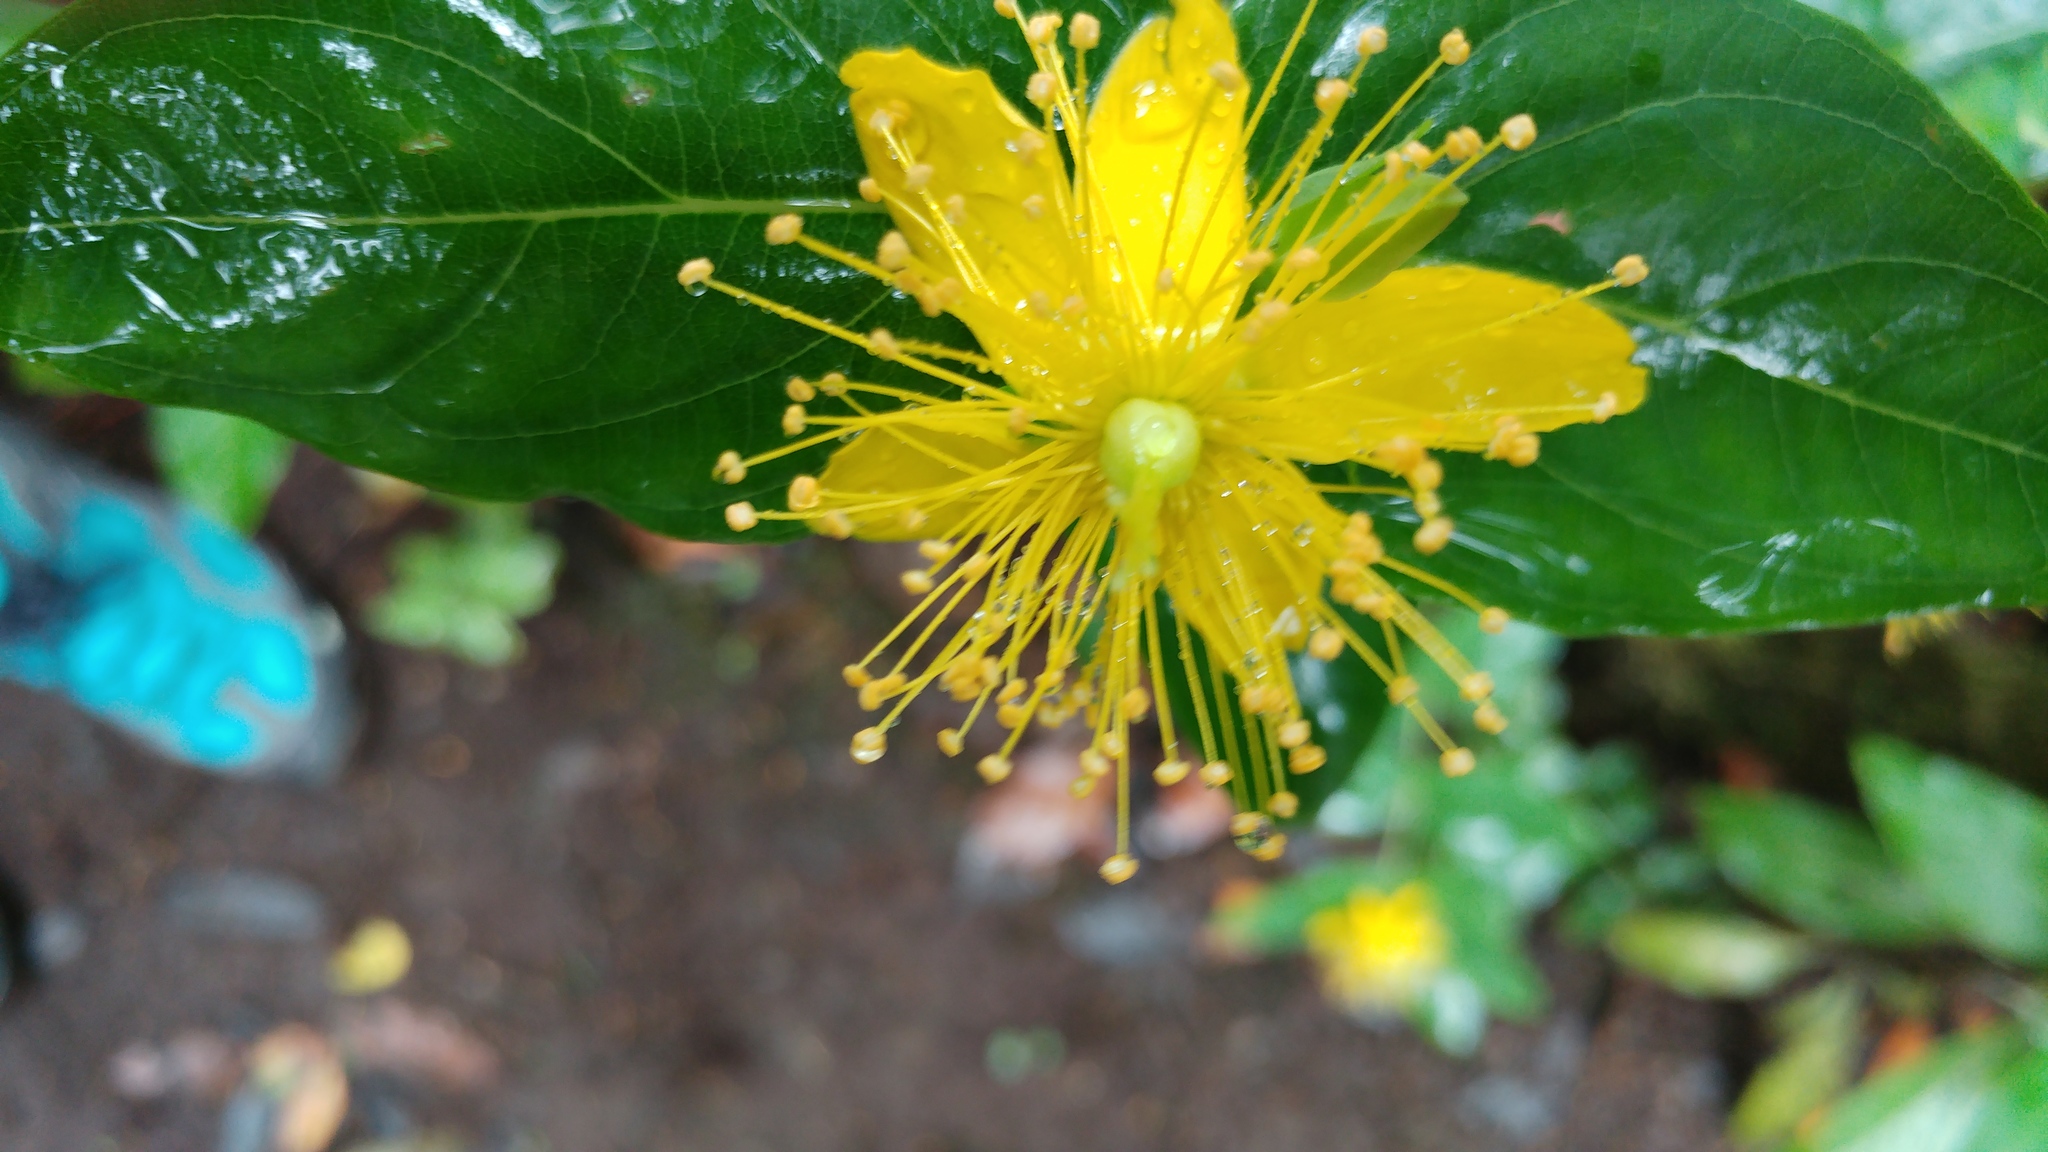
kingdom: Plantae
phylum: Tracheophyta
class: Magnoliopsida
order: Malpighiales
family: Hypericaceae
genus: Hypericum
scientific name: Hypericum grandifolium
